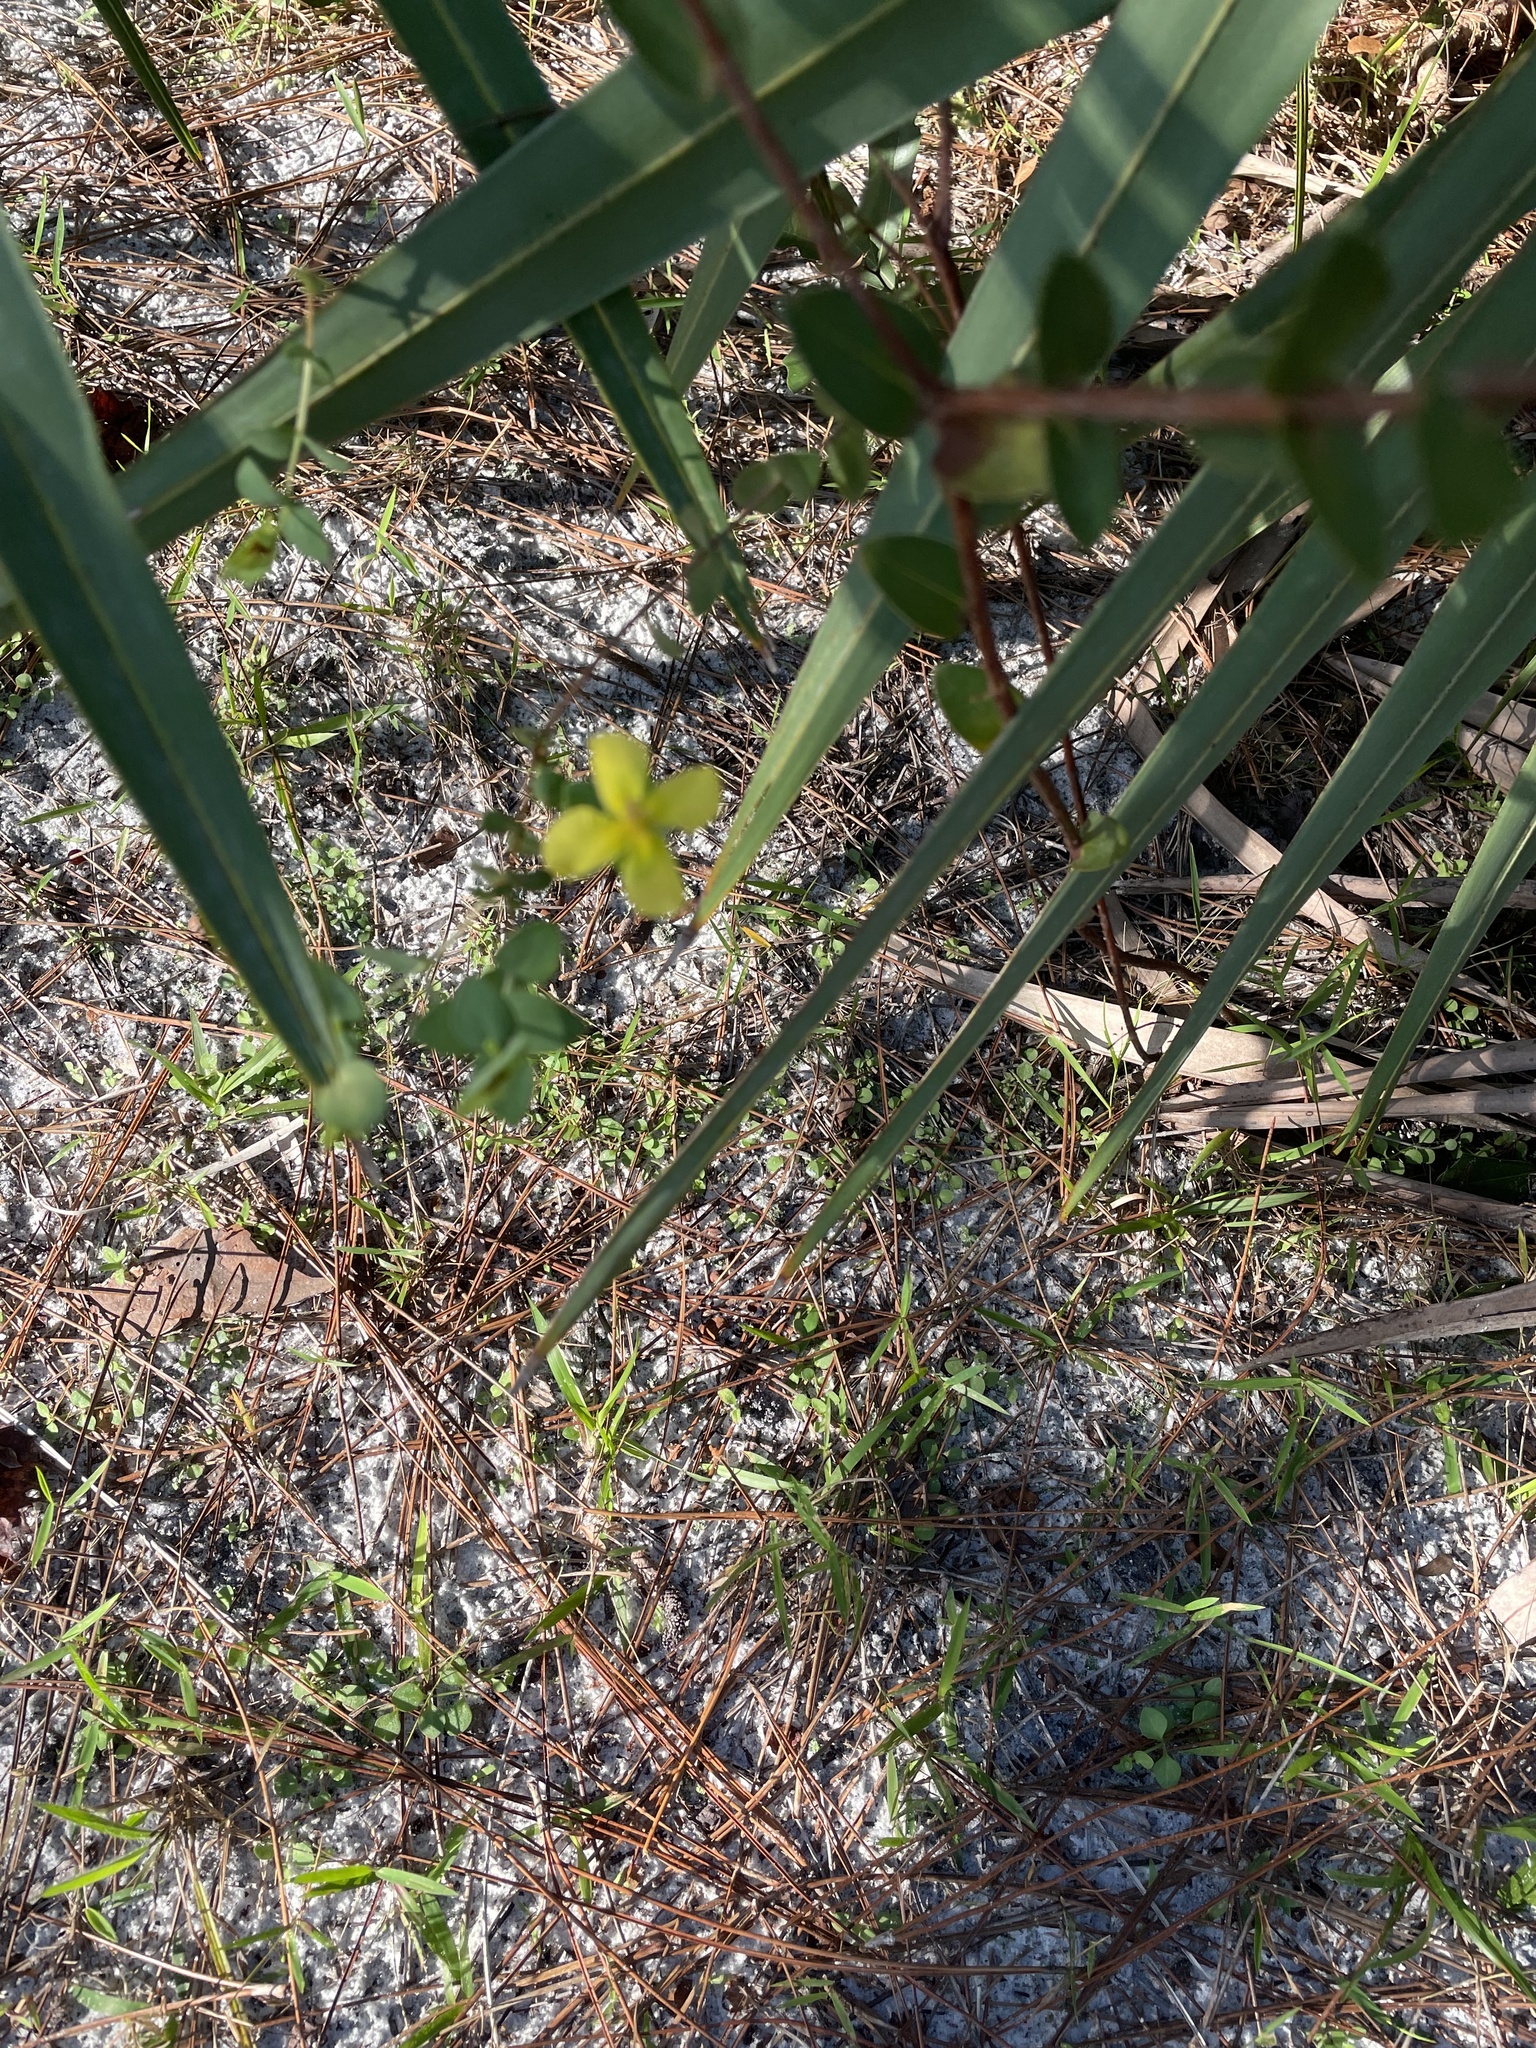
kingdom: Plantae
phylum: Tracheophyta
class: Magnoliopsida
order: Malpighiales
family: Hypericaceae
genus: Hypericum
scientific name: Hypericum tetrapetalum
